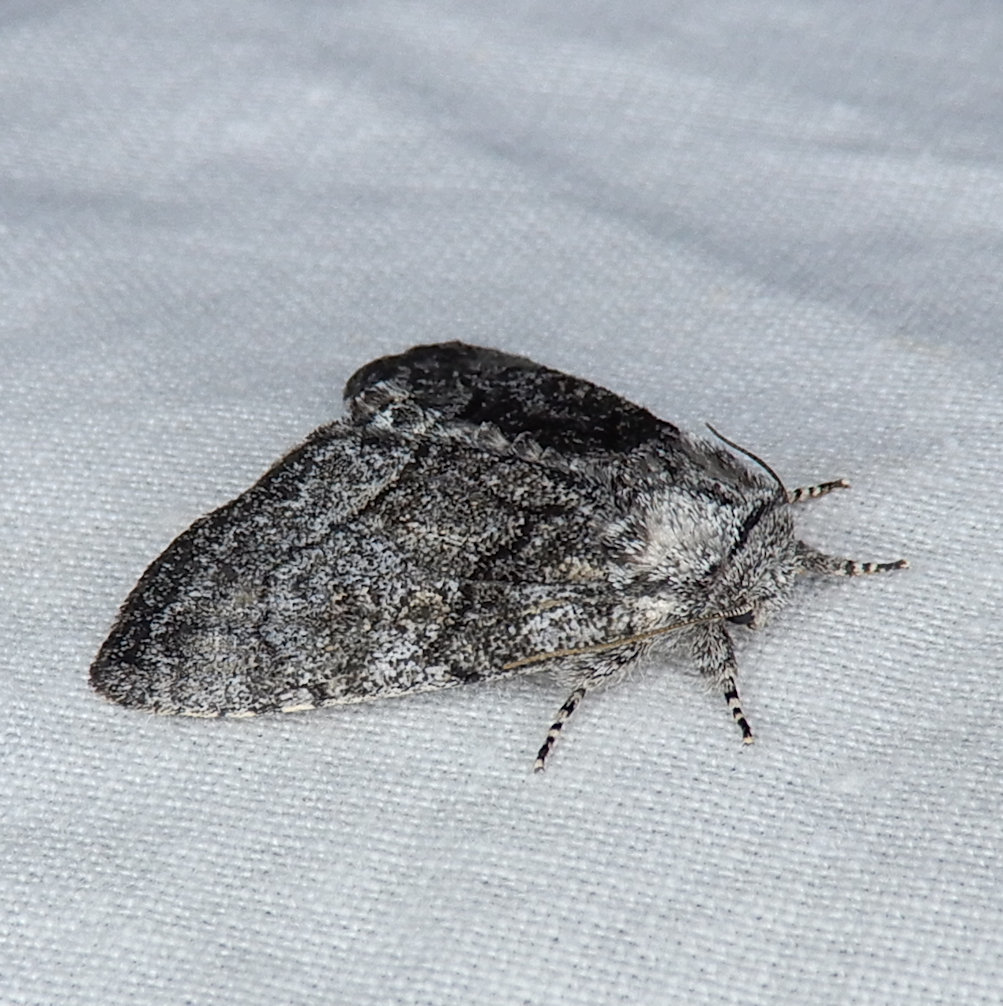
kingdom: Animalia
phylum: Arthropoda
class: Insecta
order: Lepidoptera
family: Noctuidae
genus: Raphia
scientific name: Raphia frater
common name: Brother
